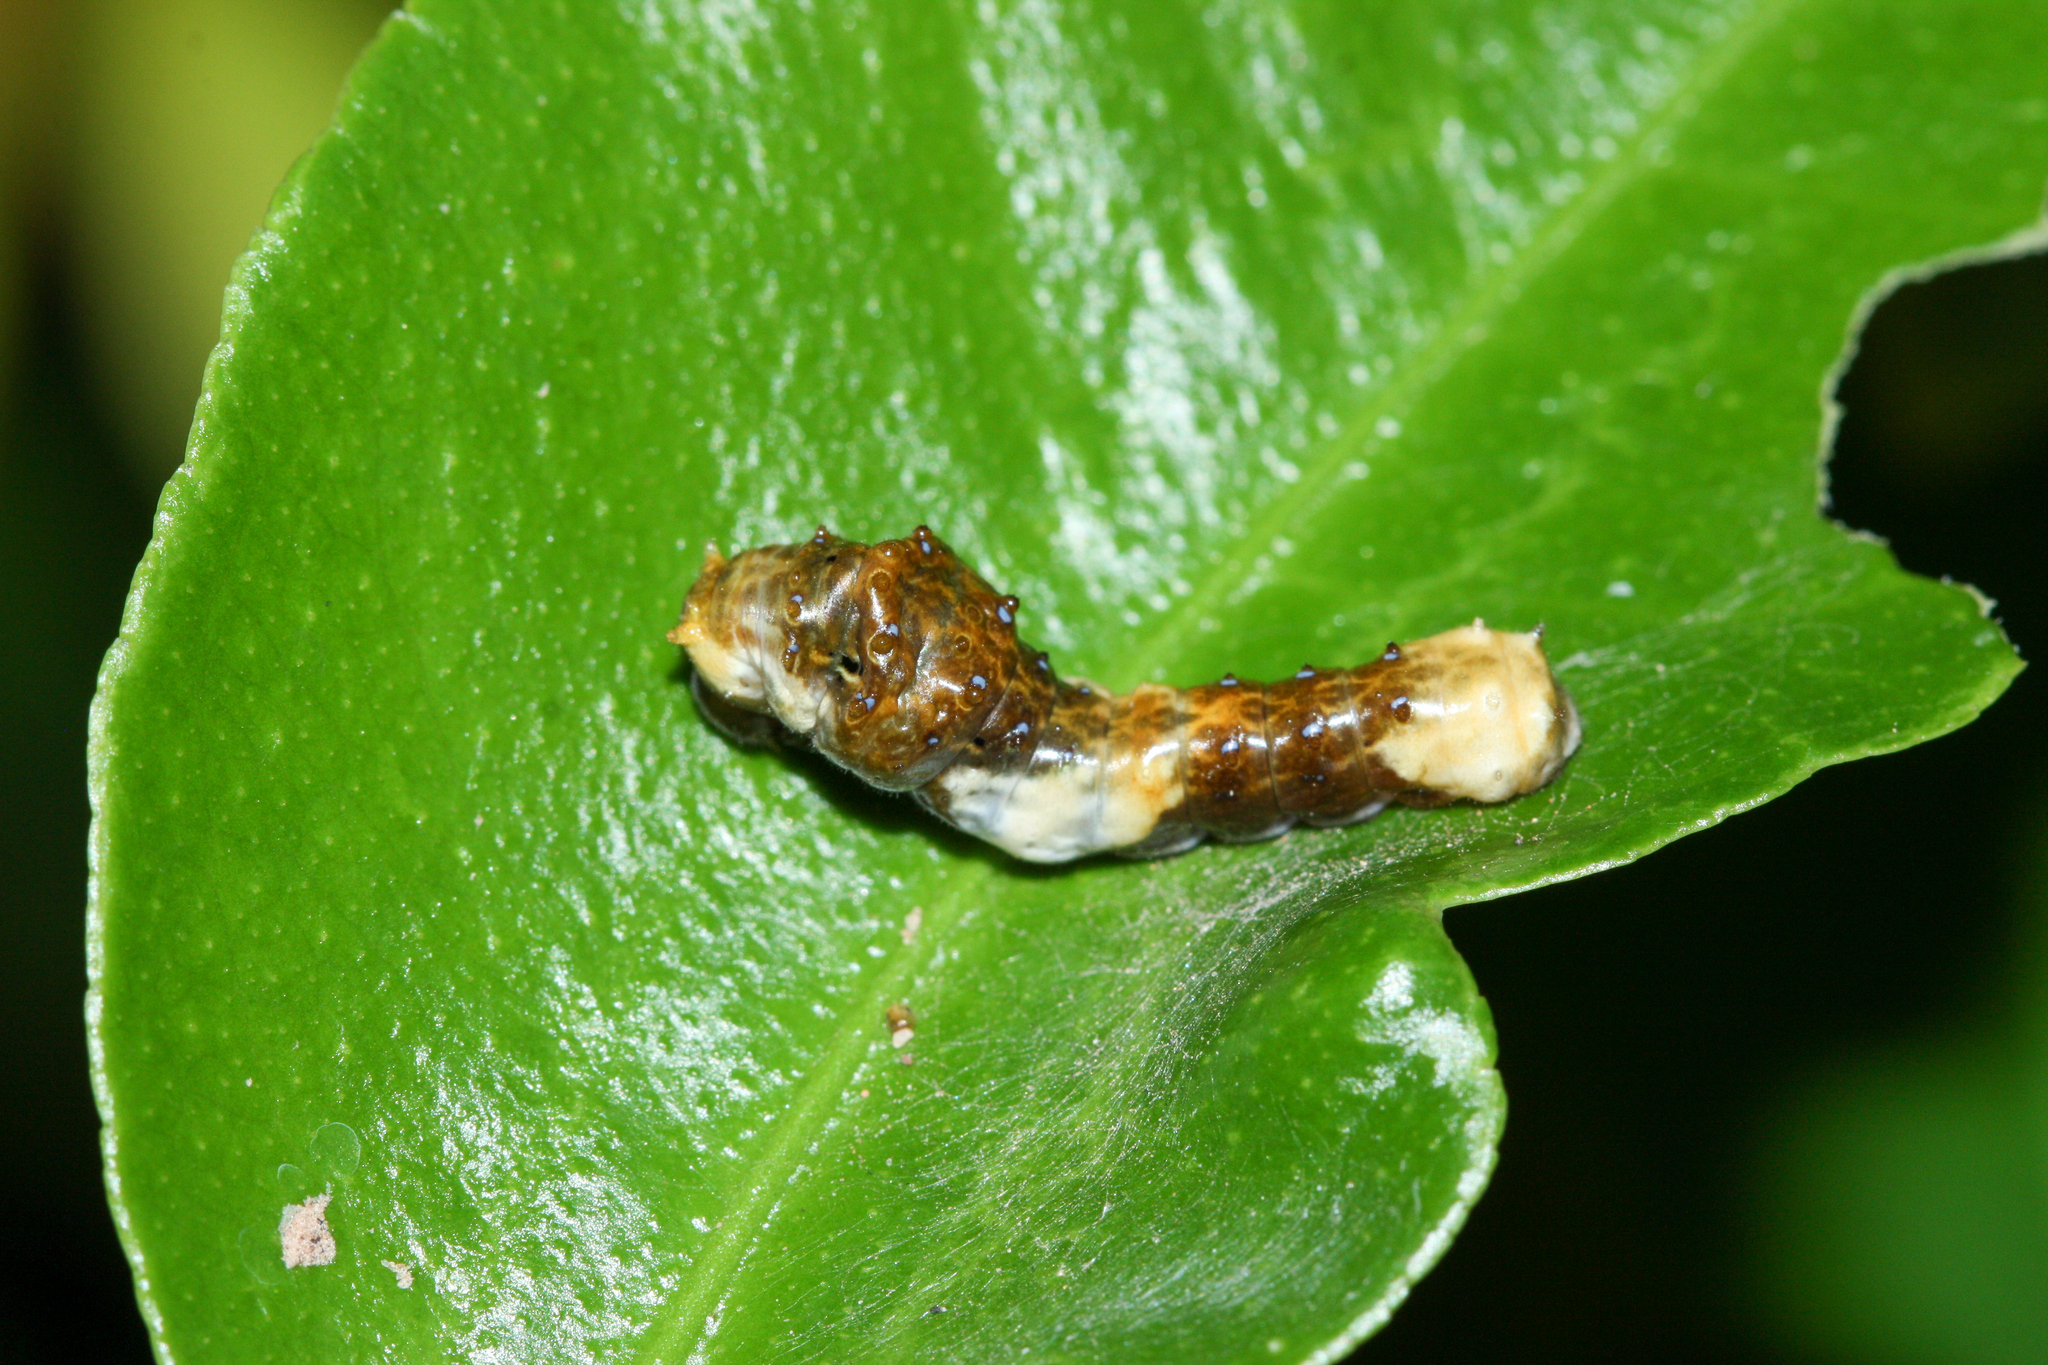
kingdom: Animalia
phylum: Arthropoda
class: Insecta
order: Lepidoptera
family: Papilionidae
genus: Papilio
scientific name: Papilio rumiko
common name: Western giant swallowtail
